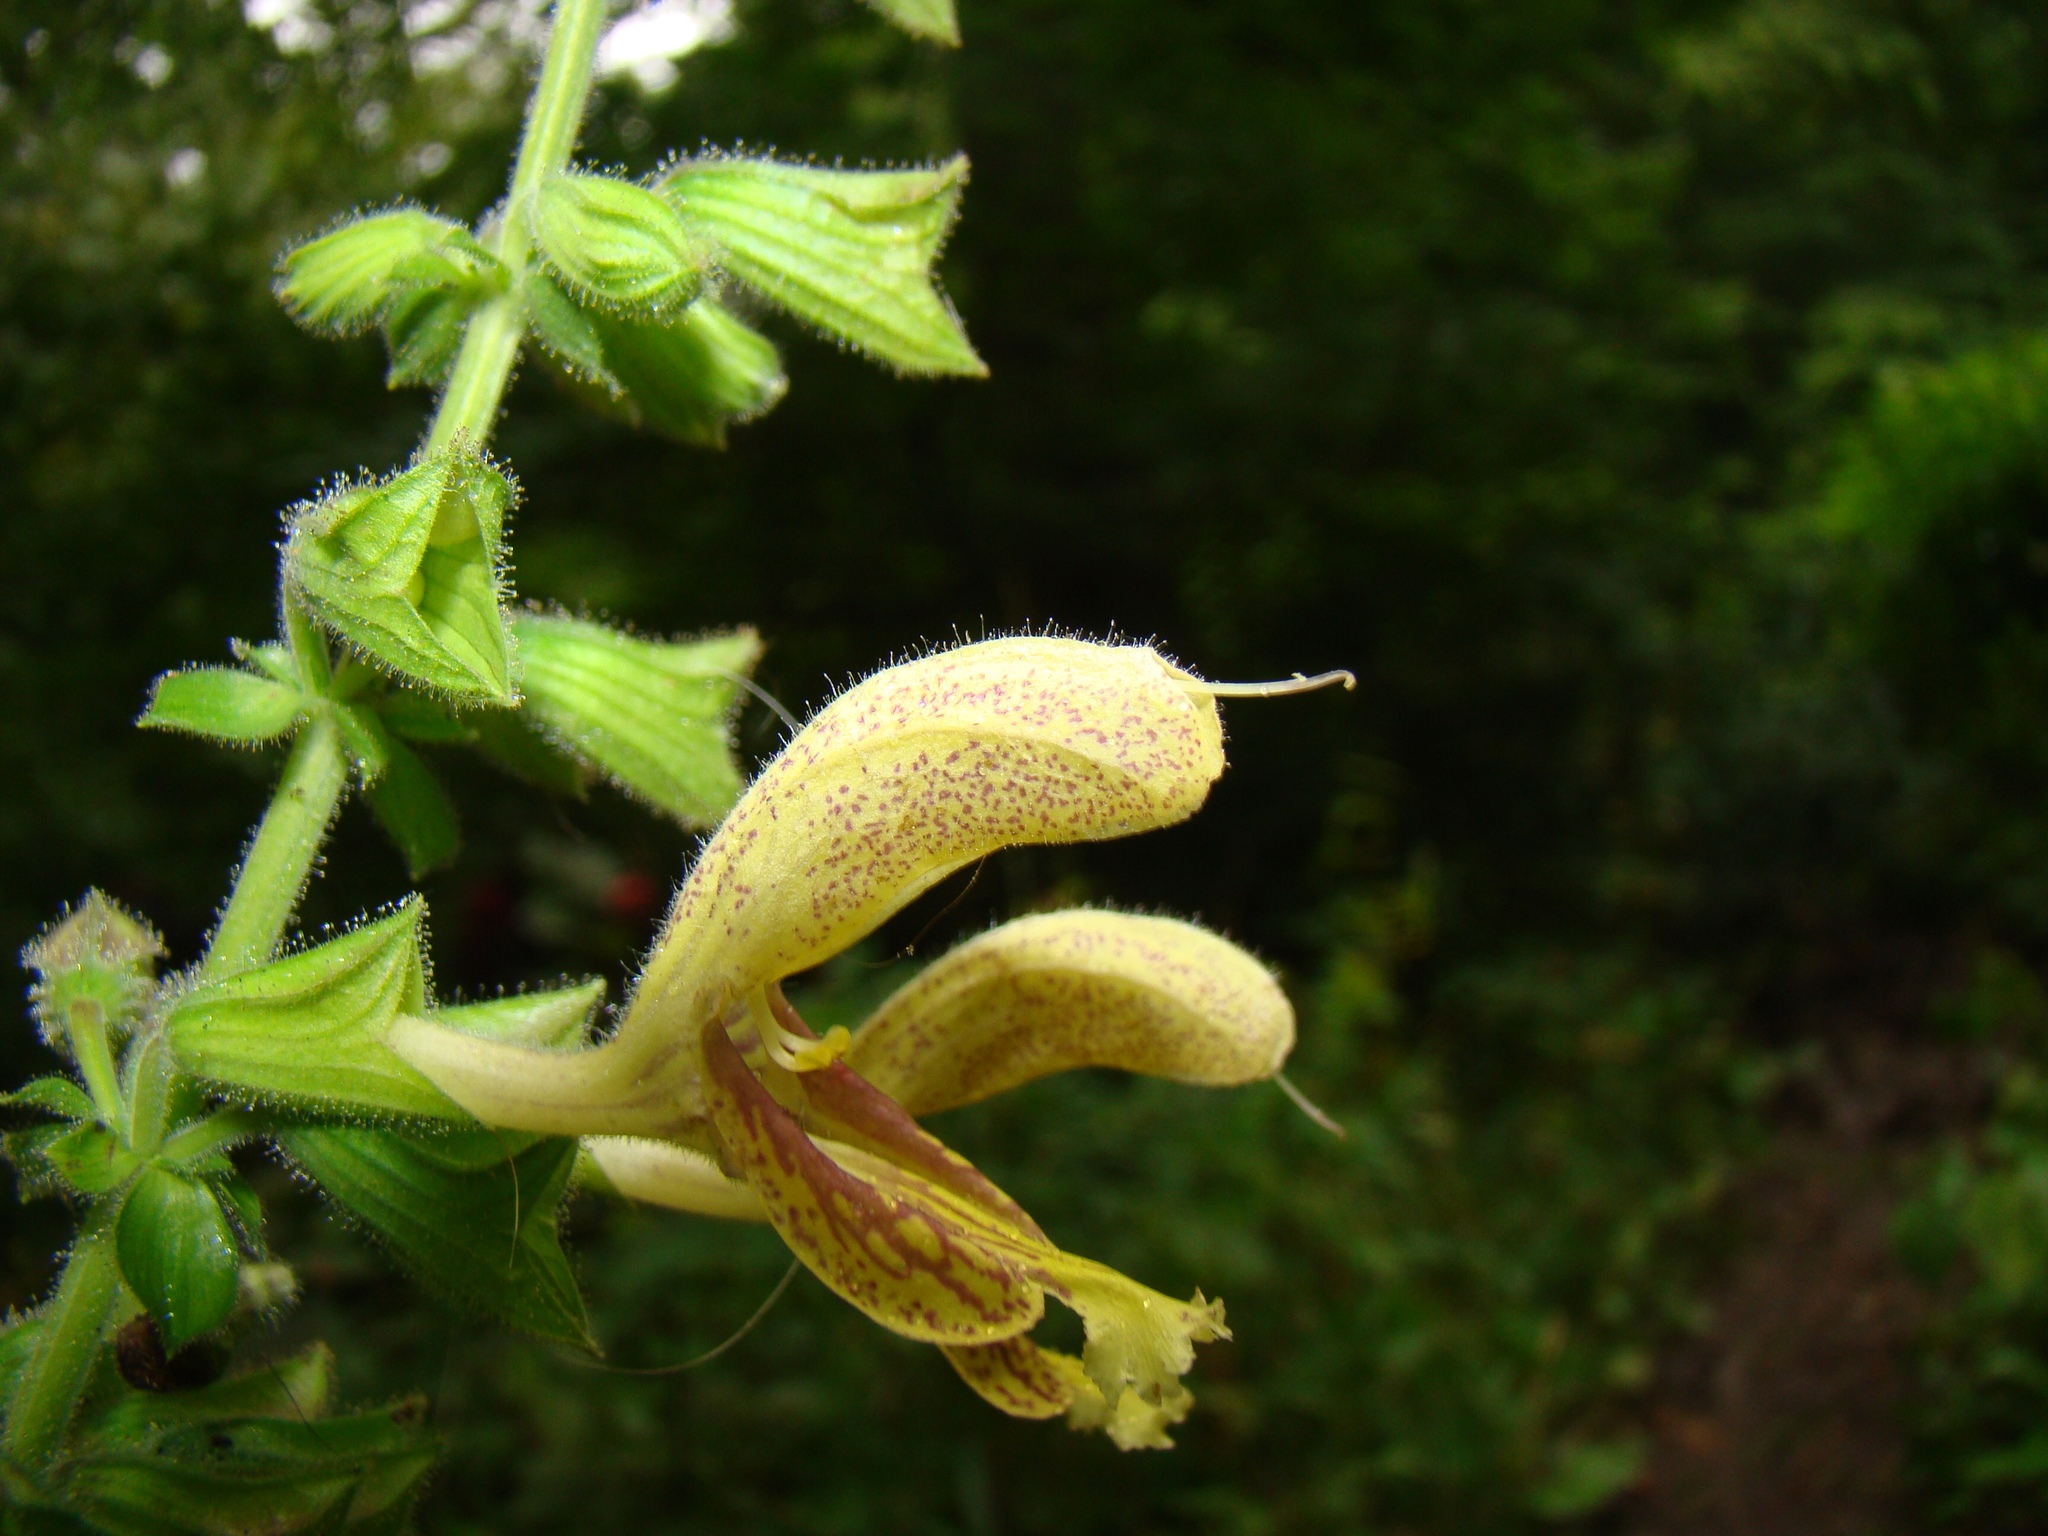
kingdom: Plantae
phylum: Tracheophyta
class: Magnoliopsida
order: Lamiales
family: Lamiaceae
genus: Salvia
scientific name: Salvia glutinosa
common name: Sticky clary
